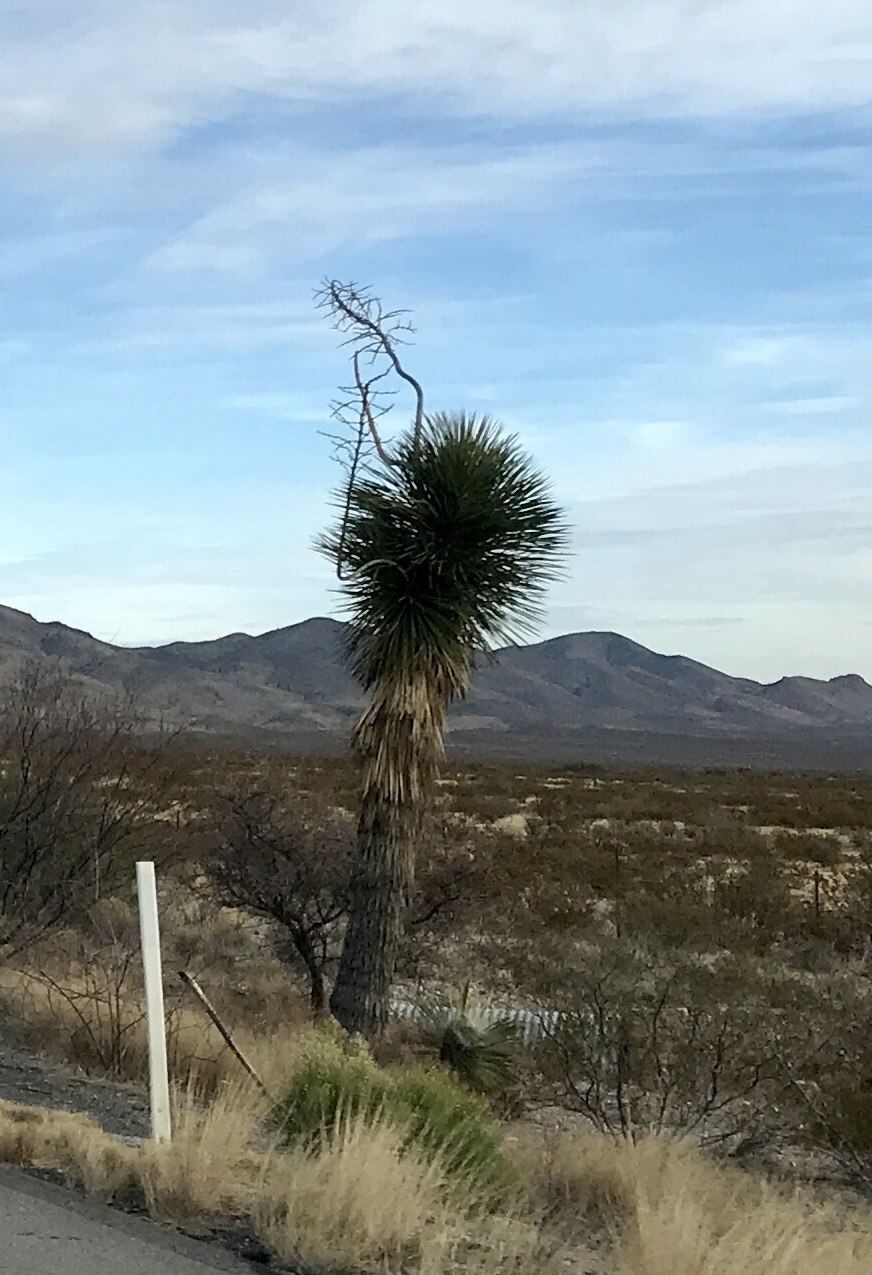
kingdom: Plantae
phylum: Tracheophyta
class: Liliopsida
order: Asparagales
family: Asparagaceae
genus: Yucca
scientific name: Yucca elata
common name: Palmella
